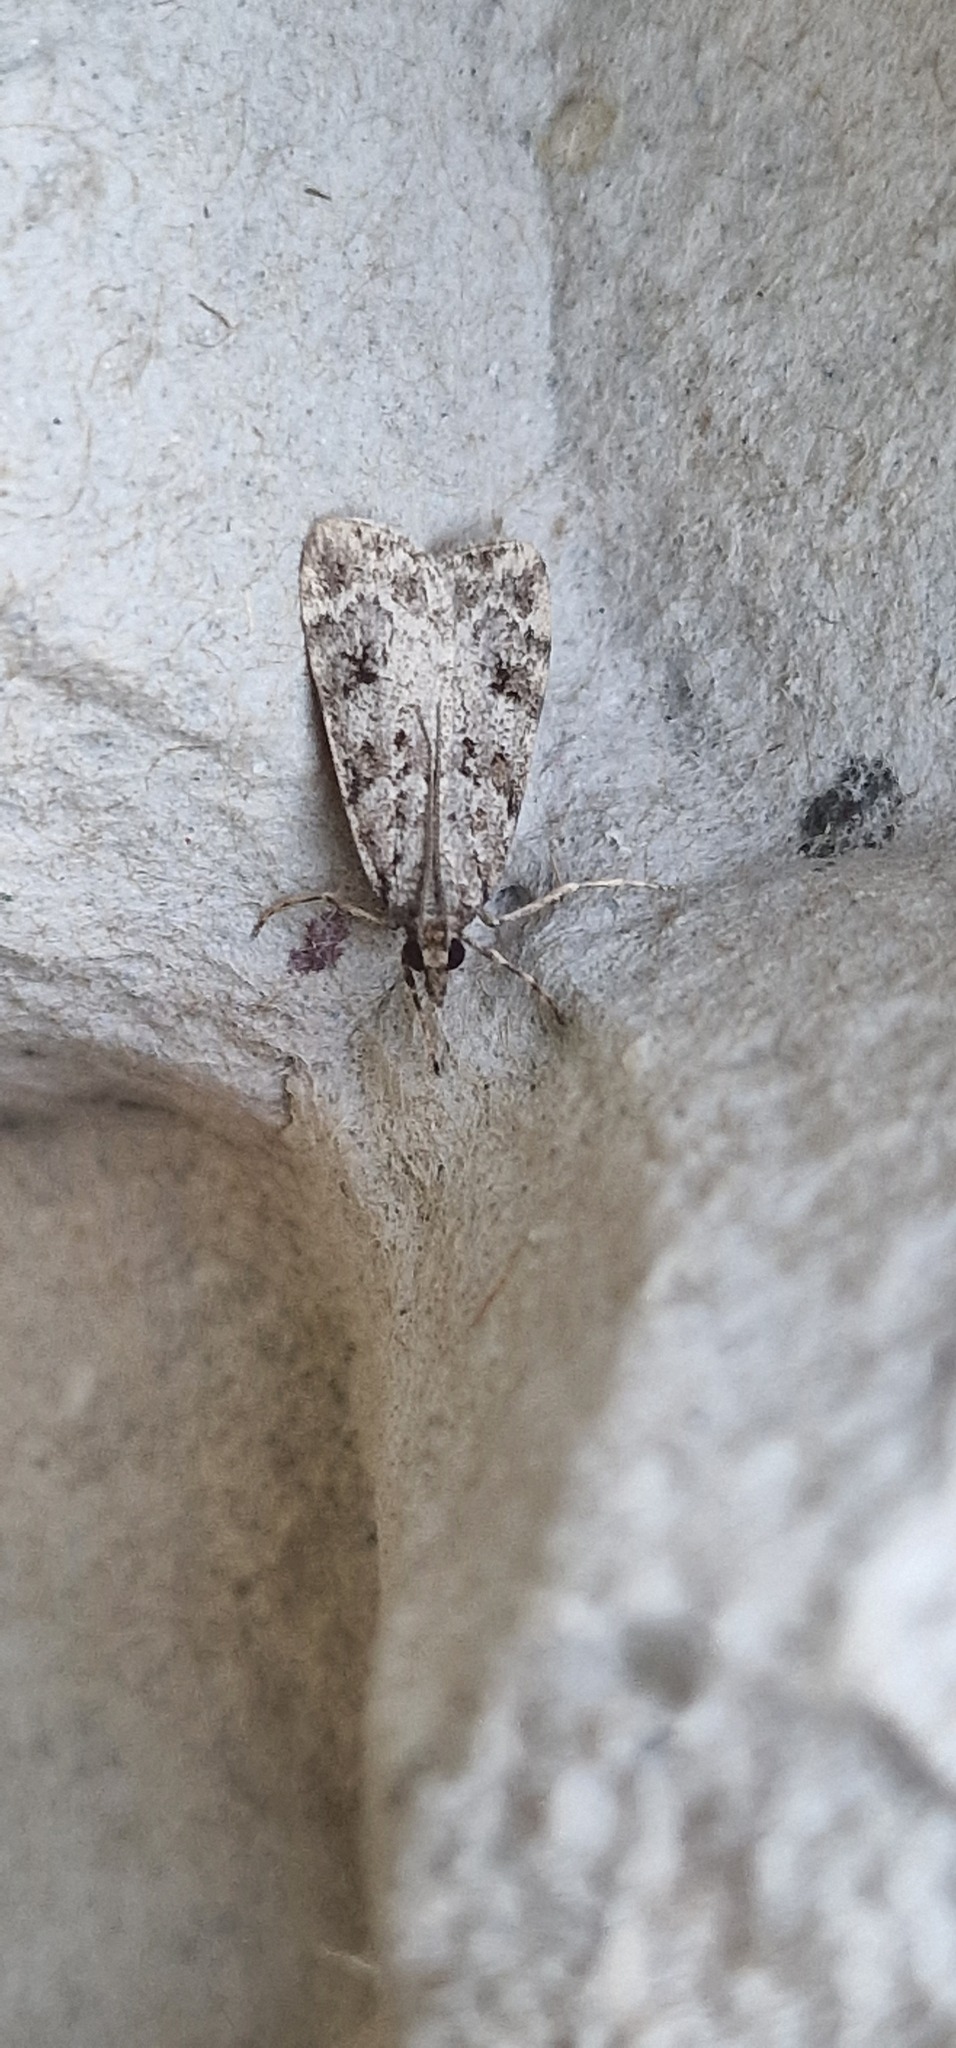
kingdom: Animalia
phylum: Arthropoda
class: Insecta
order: Lepidoptera
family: Crambidae
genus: Eudonia
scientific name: Eudonia lacustrata
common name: Little grey
